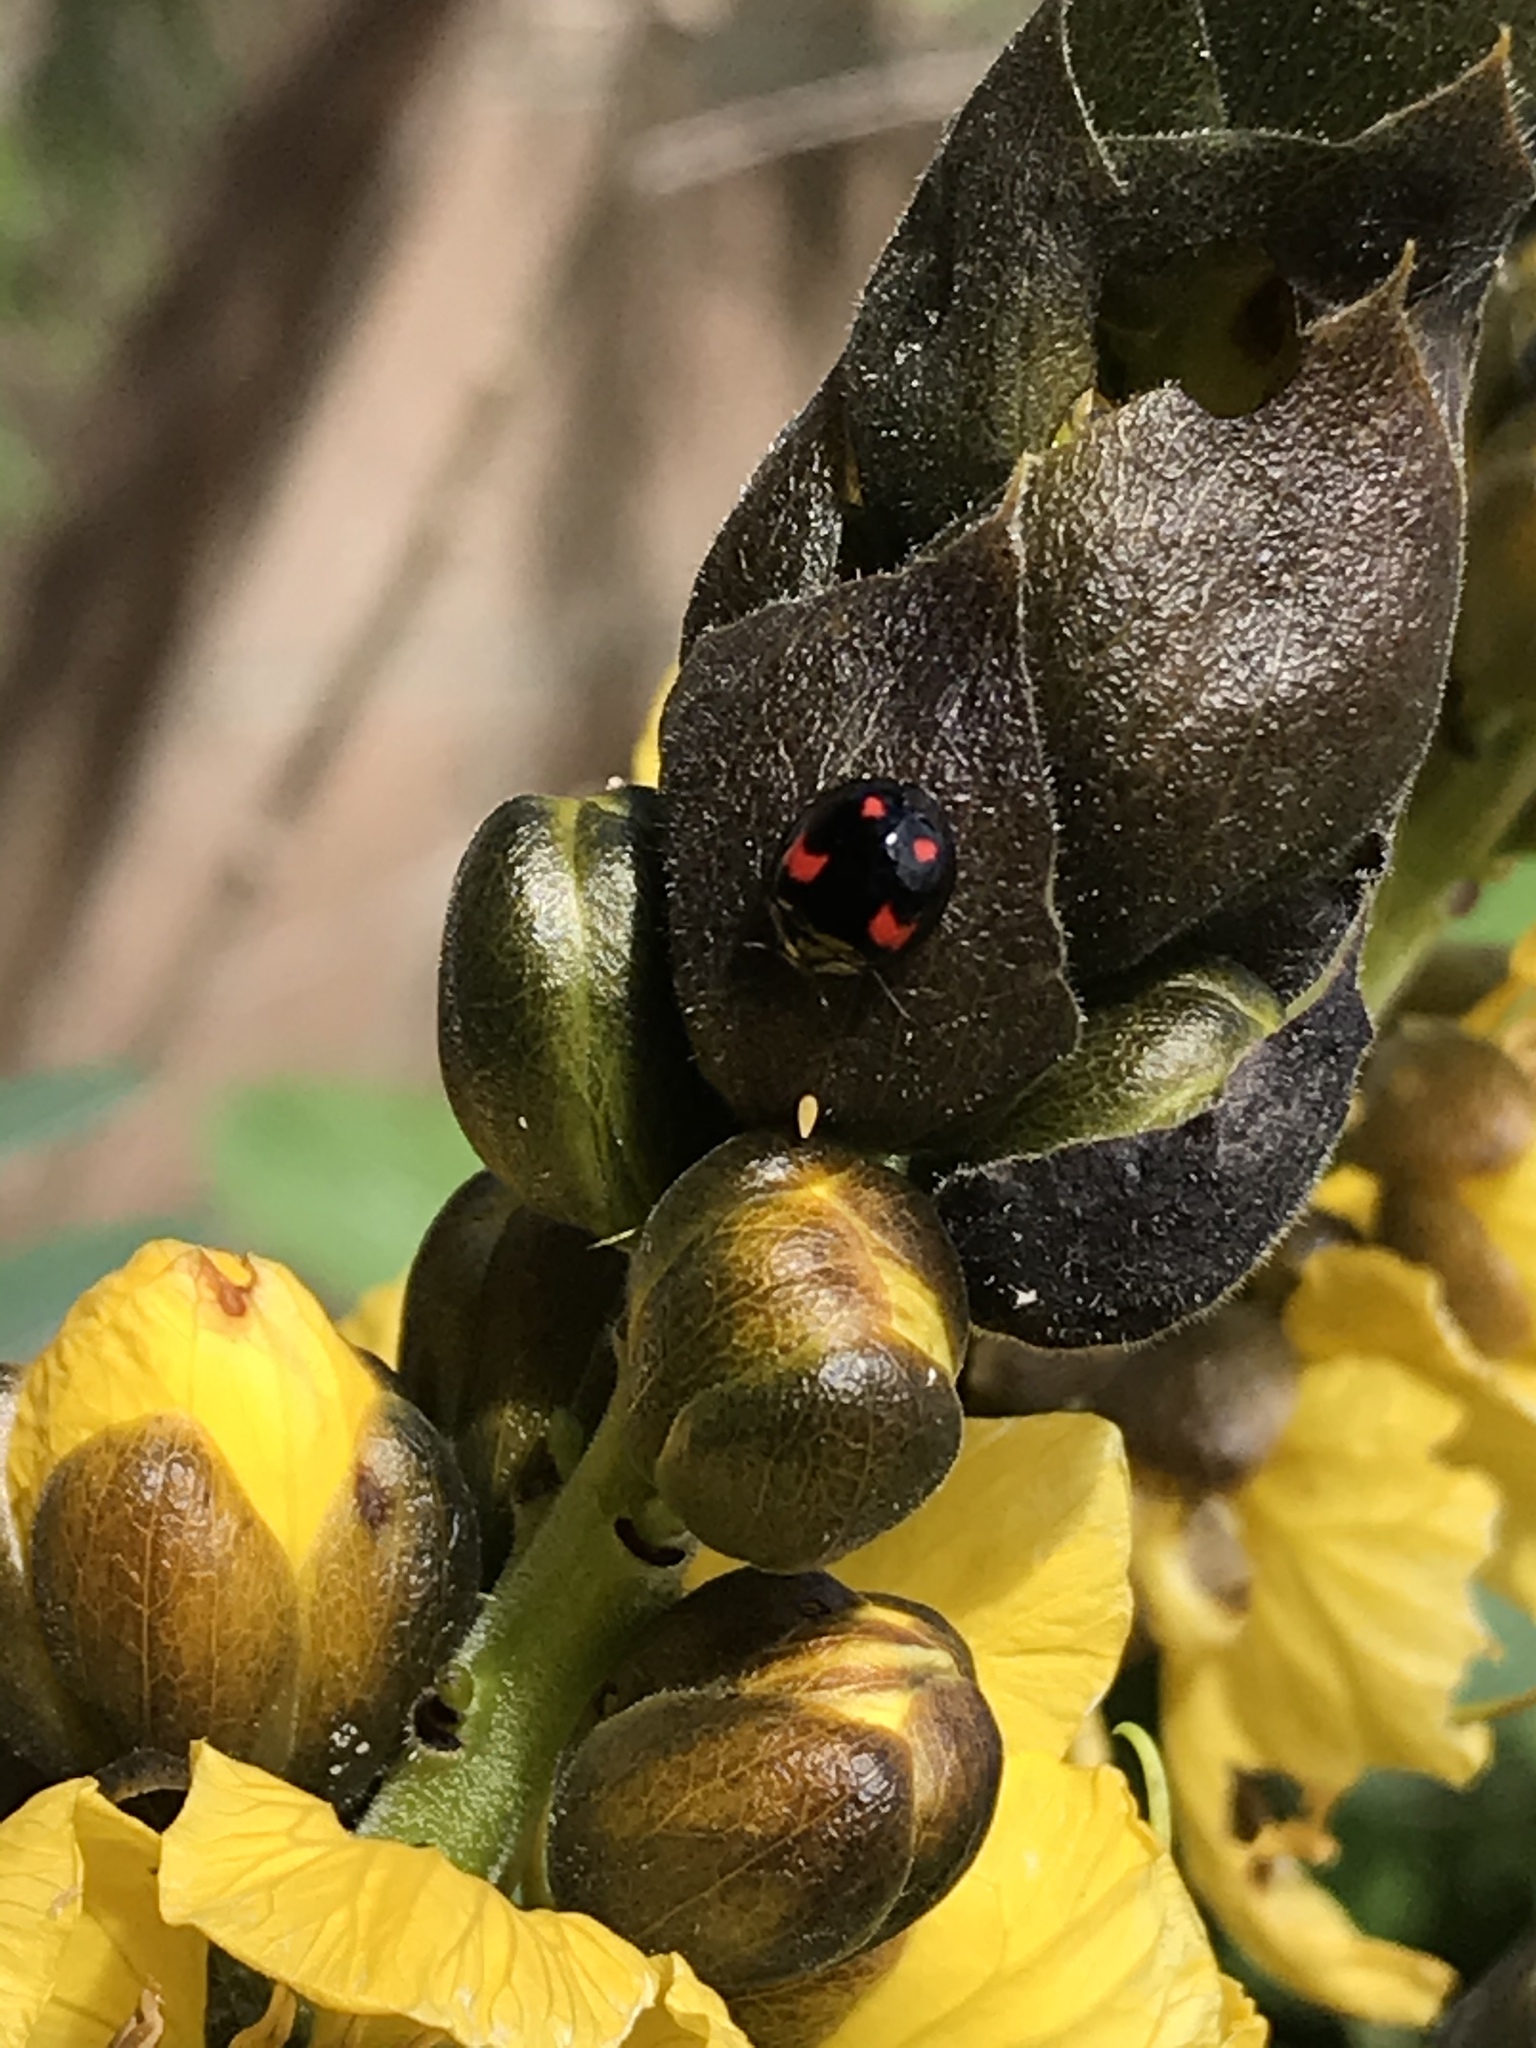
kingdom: Animalia
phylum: Arthropoda
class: Insecta
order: Coleoptera
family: Coccinellidae
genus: Harmonia
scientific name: Harmonia axyridis
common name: Harlequin ladybird
